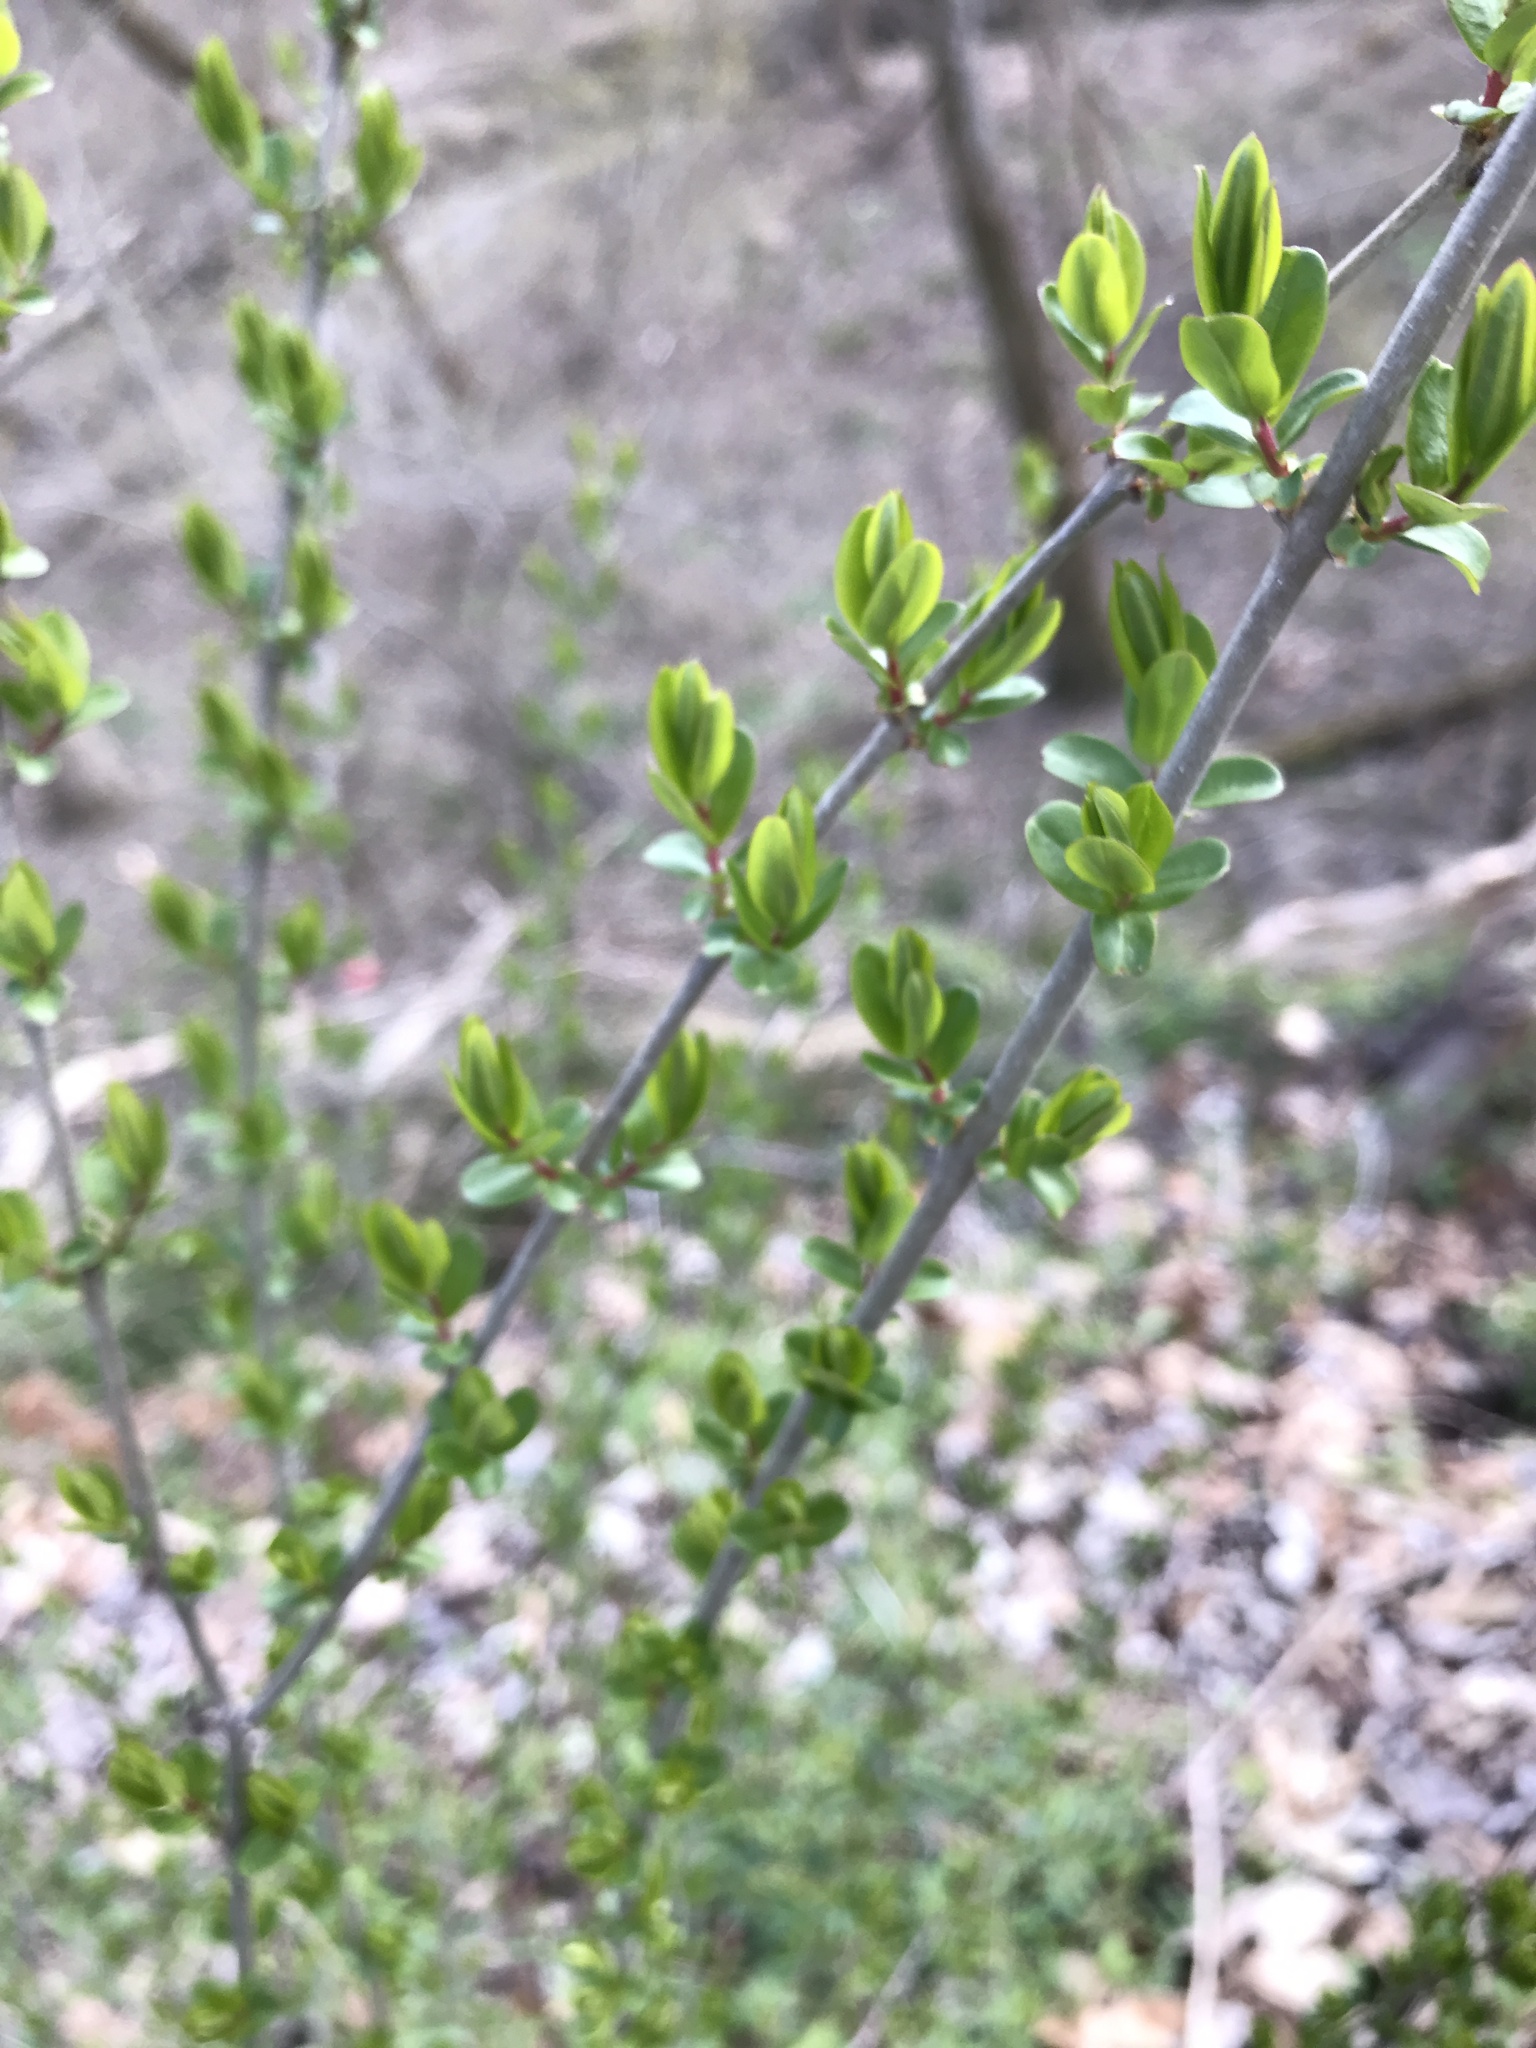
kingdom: Plantae
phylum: Tracheophyta
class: Magnoliopsida
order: Lamiales
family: Oleaceae
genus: Ligustrum
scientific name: Ligustrum obtusifolium
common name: Border privet
